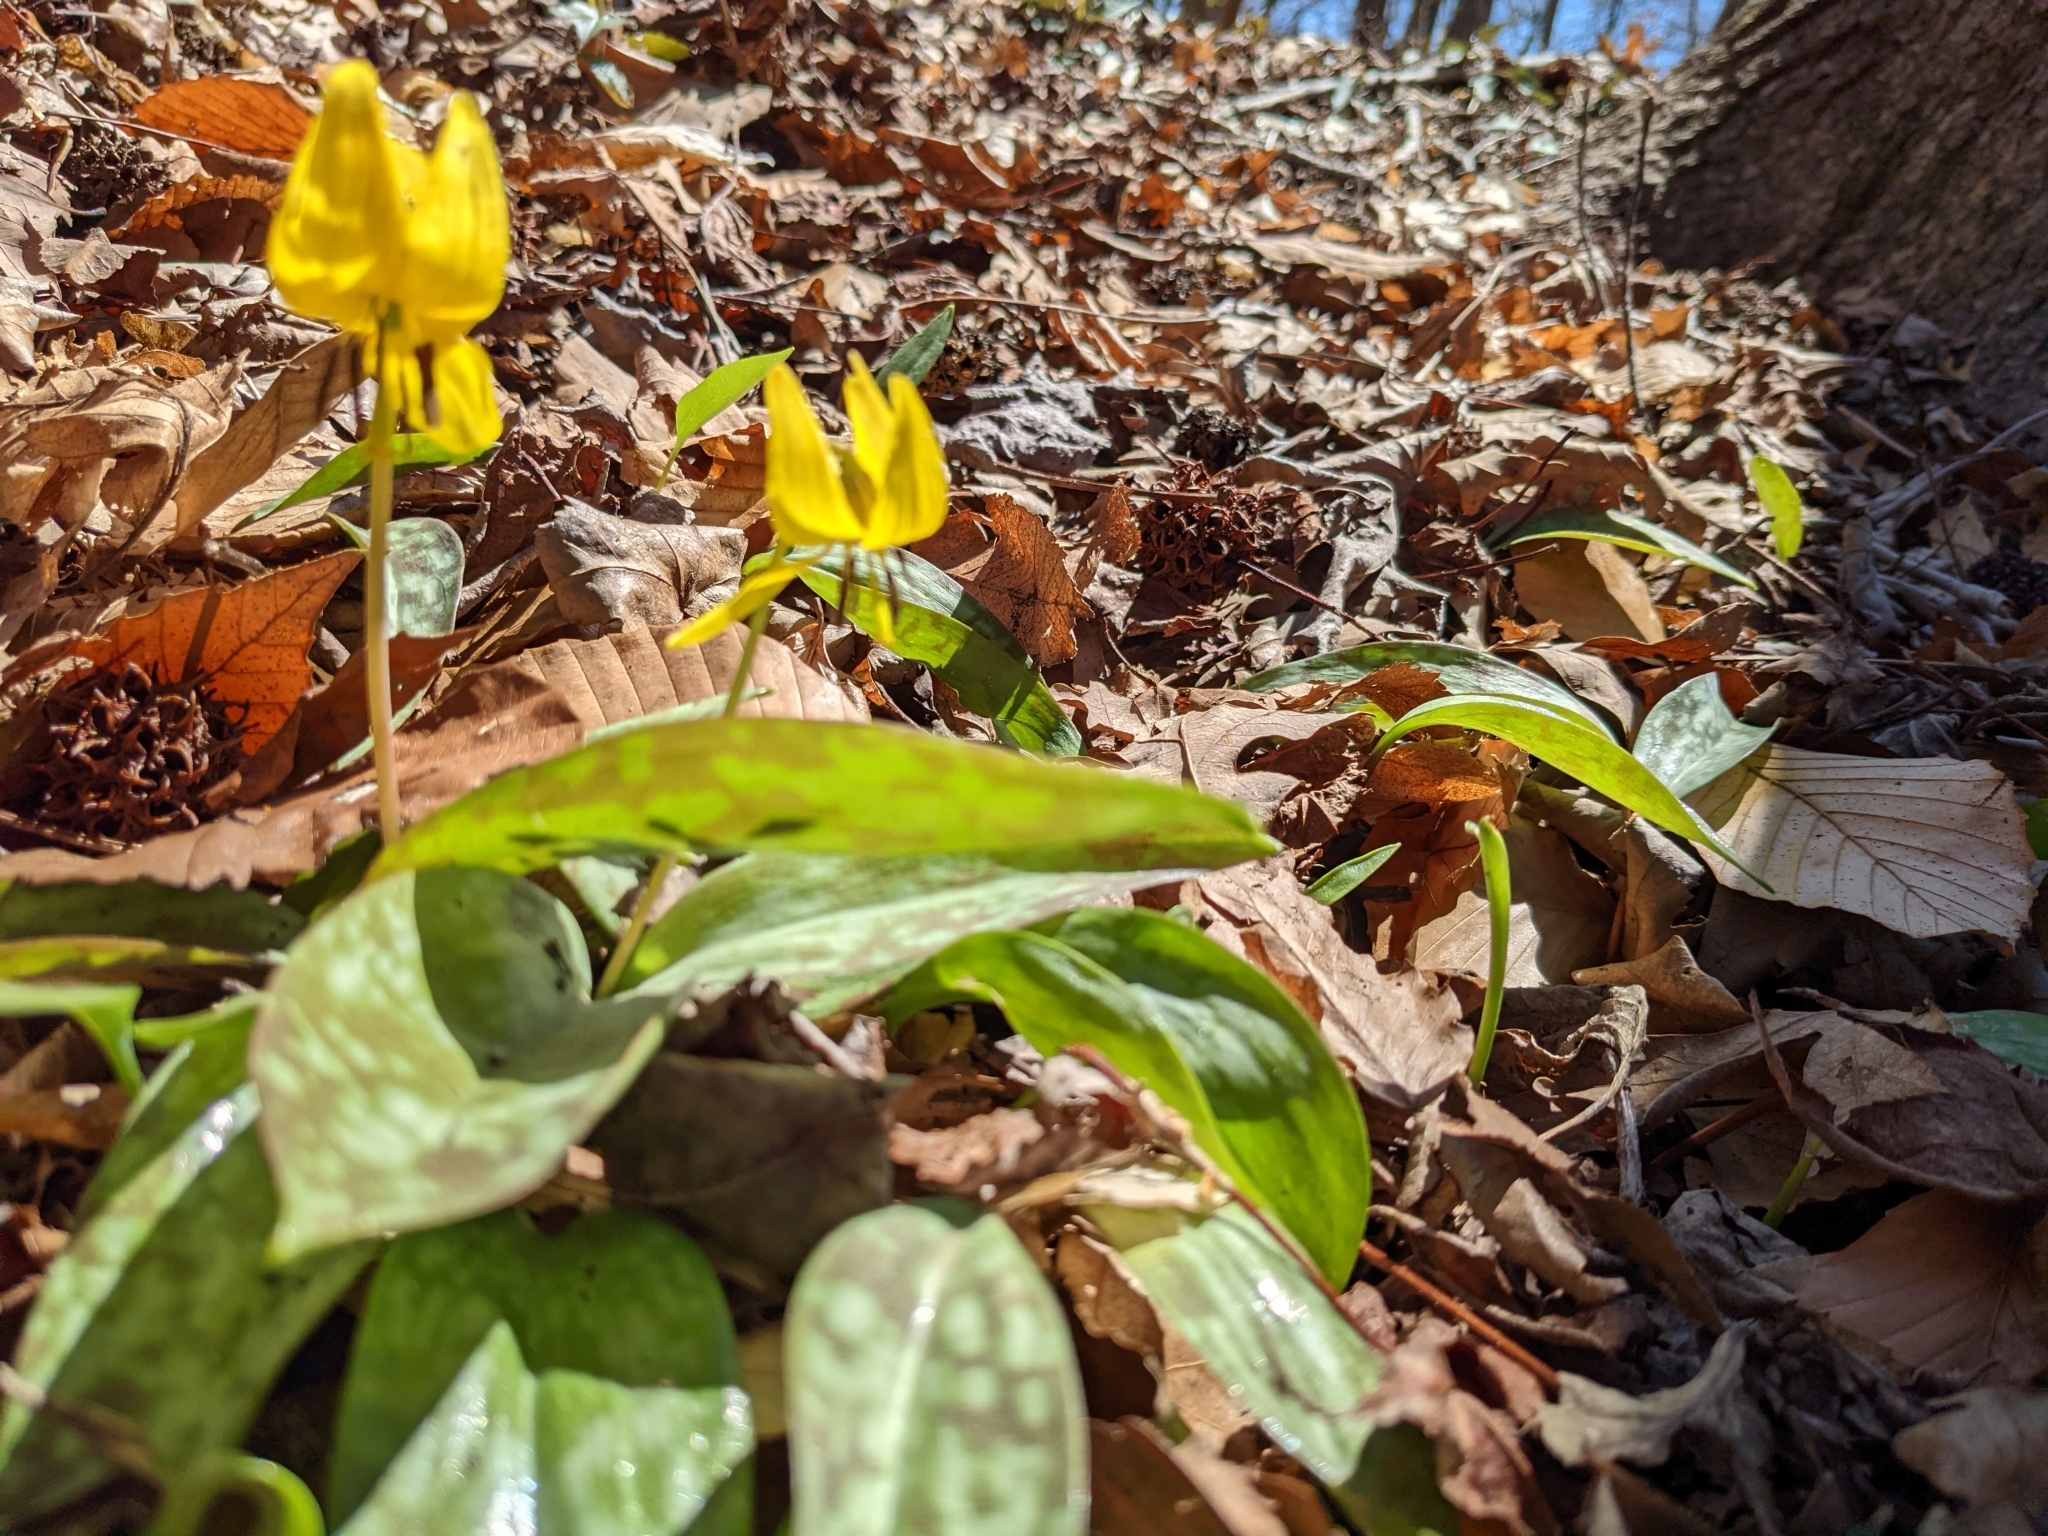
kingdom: Plantae
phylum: Tracheophyta
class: Liliopsida
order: Liliales
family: Liliaceae
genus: Erythronium
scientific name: Erythronium americanum
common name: Yellow adder's-tongue
